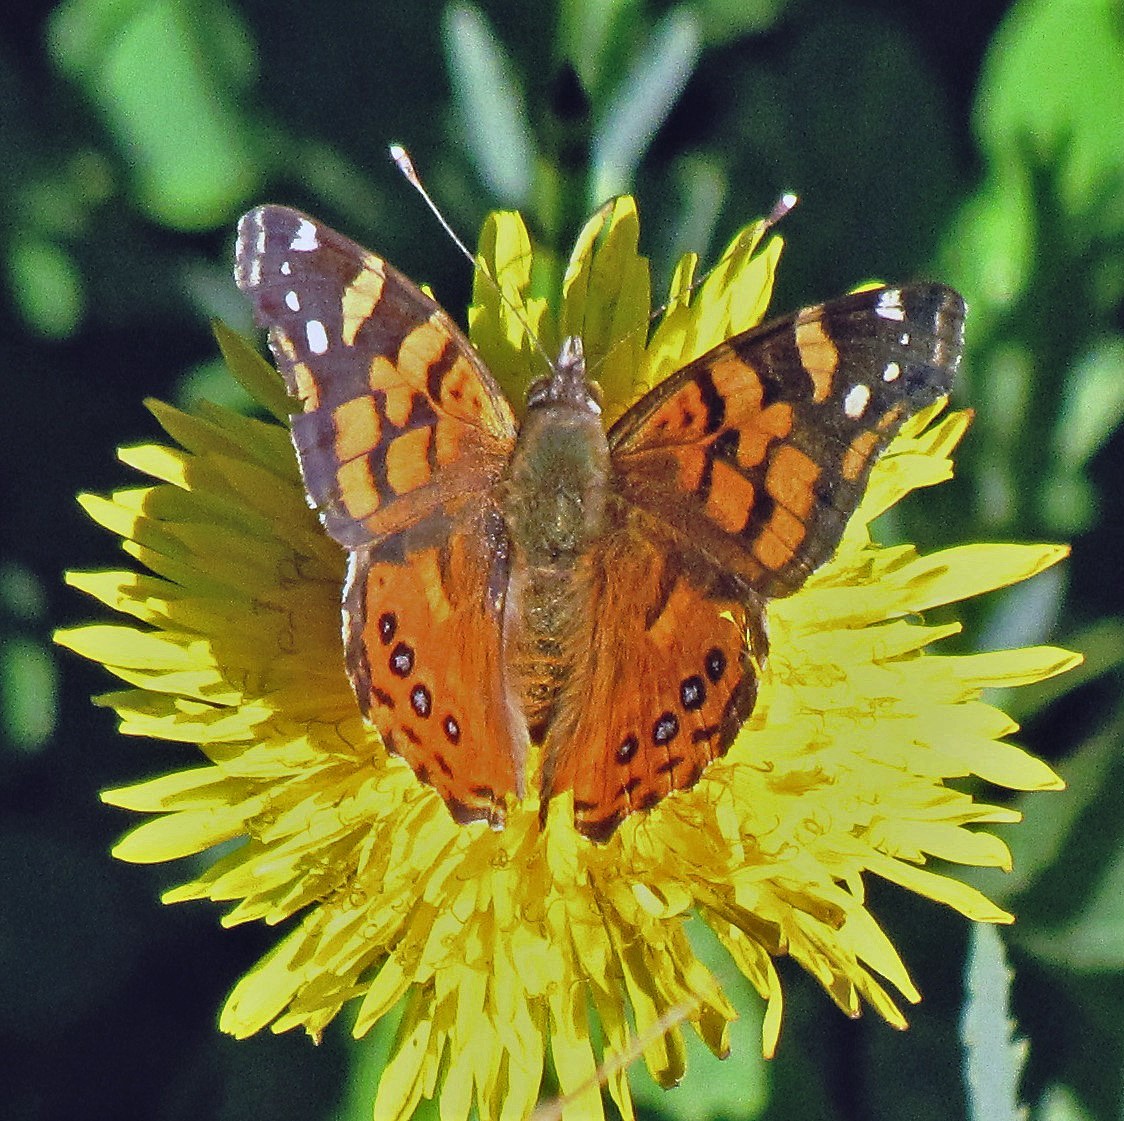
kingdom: Animalia
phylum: Arthropoda
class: Insecta
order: Lepidoptera
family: Nymphalidae
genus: Vanessa
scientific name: Vanessa carye
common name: Subtropical lady
